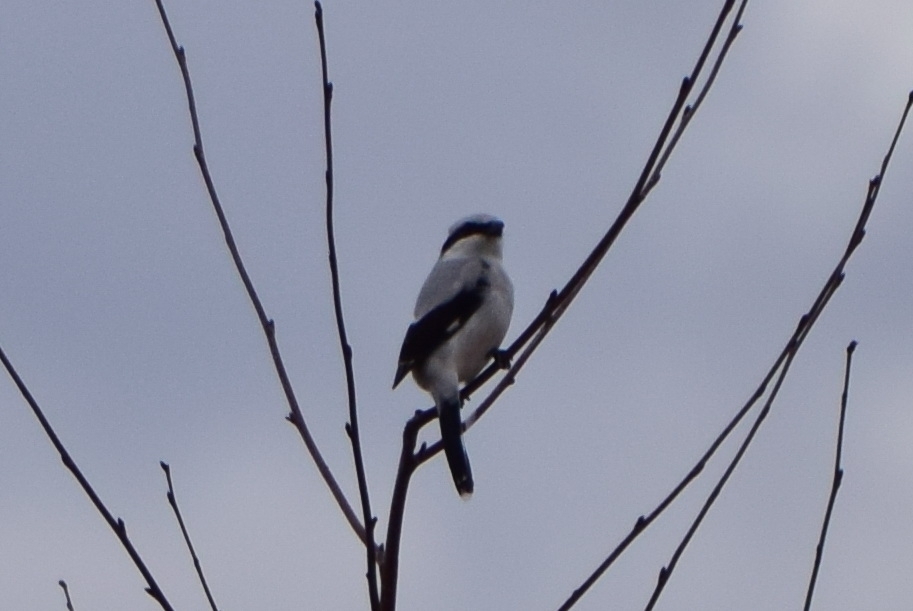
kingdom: Animalia
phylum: Chordata
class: Aves
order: Passeriformes
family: Laniidae
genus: Lanius
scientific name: Lanius excubitor
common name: Great grey shrike
